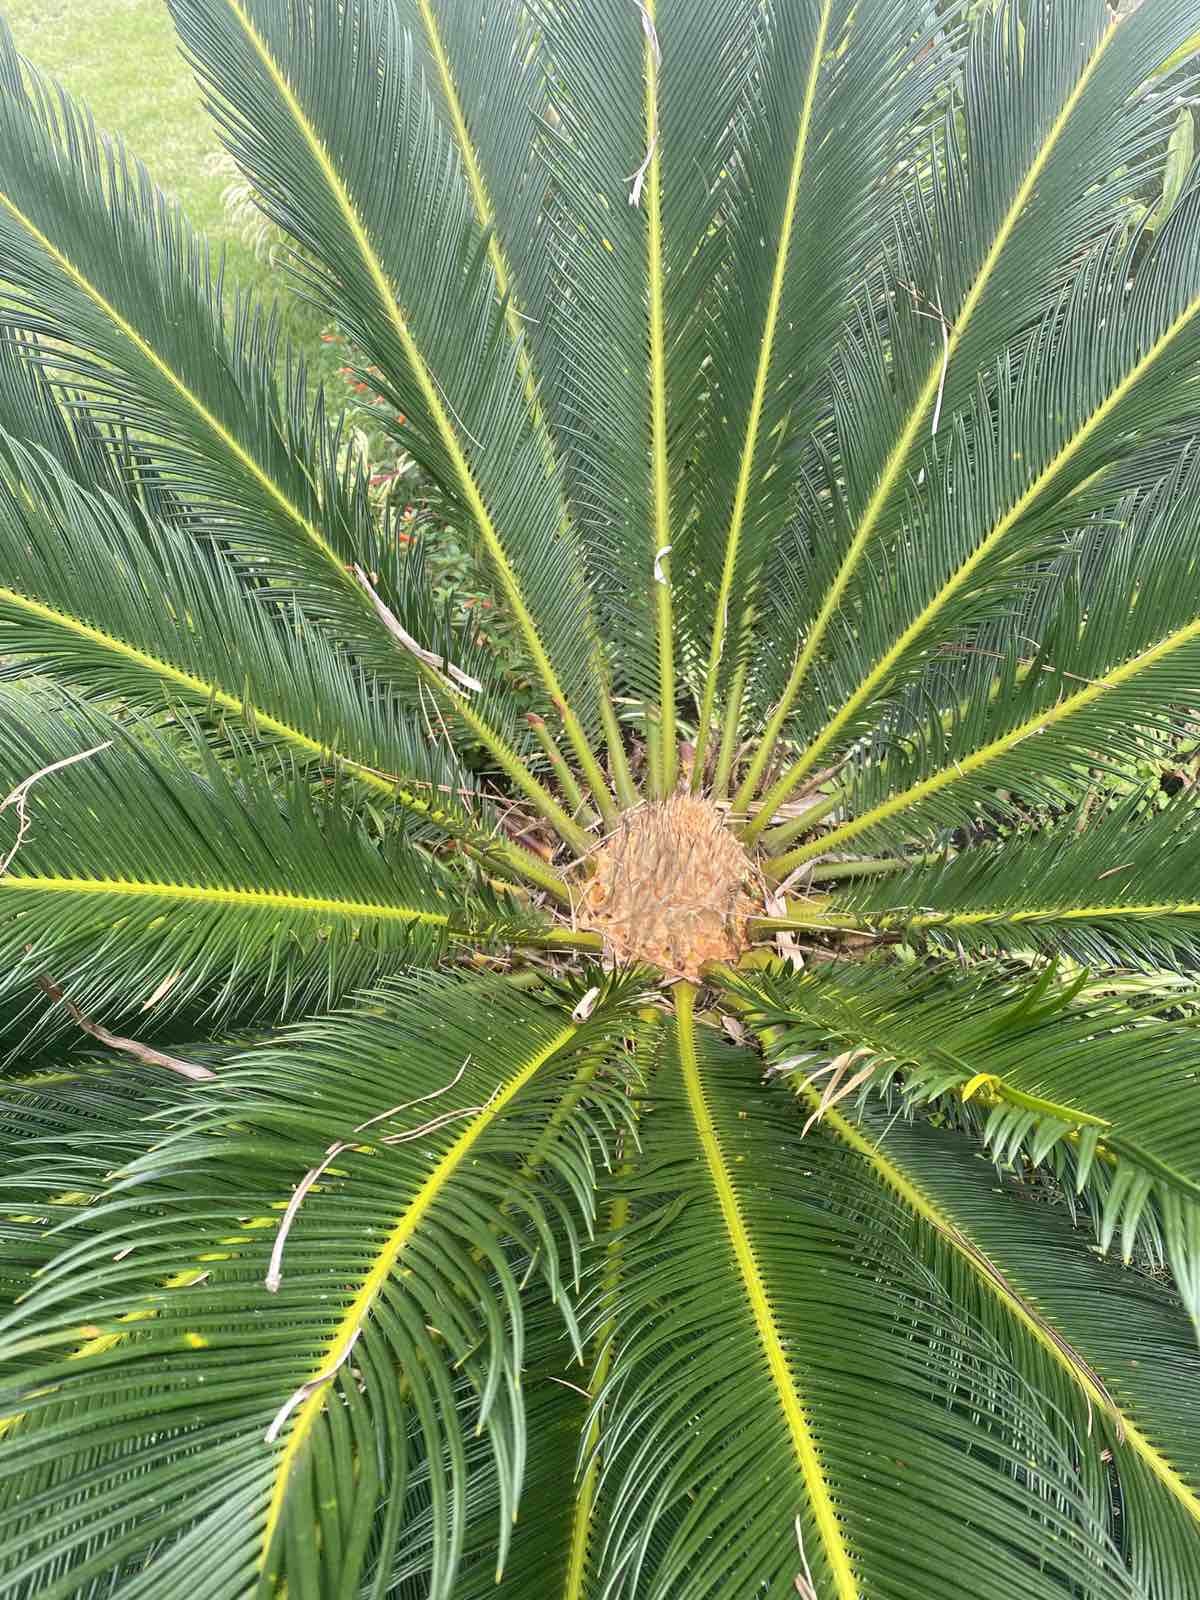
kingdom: Plantae
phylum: Tracheophyta
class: Cycadopsida
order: Cycadales
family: Cycadaceae
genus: Cycas
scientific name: Cycas revoluta
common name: Sago palm
